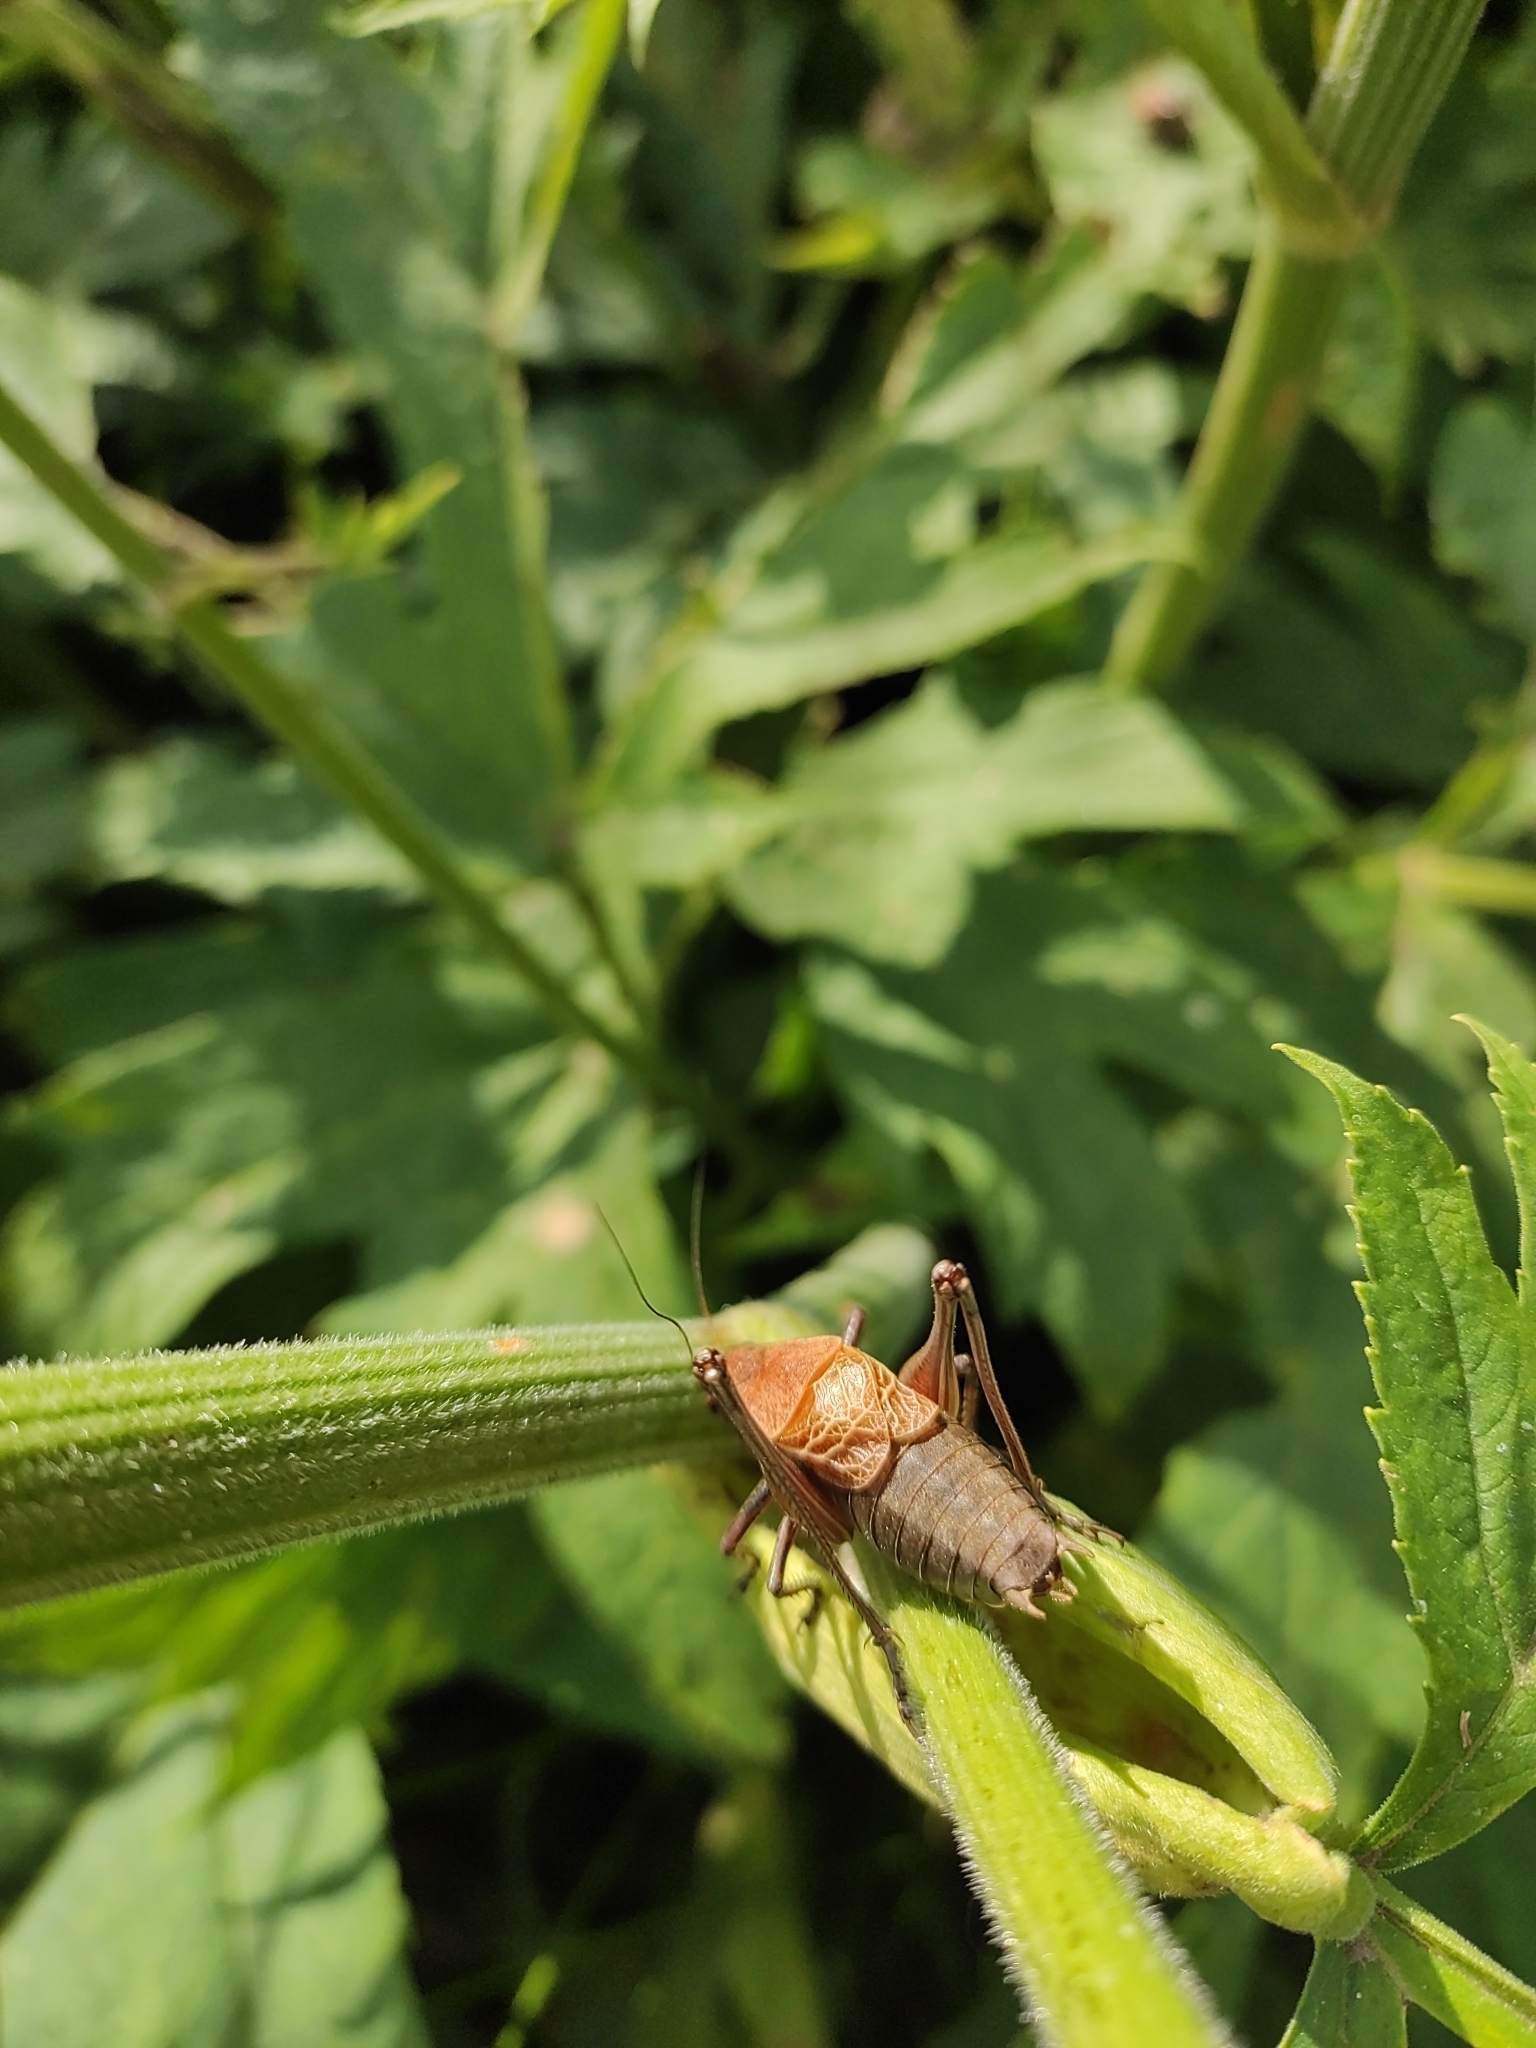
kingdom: Animalia
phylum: Arthropoda
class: Insecta
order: Orthoptera
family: Tettigoniidae
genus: Psorodonotus
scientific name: Psorodonotus caucasicus
